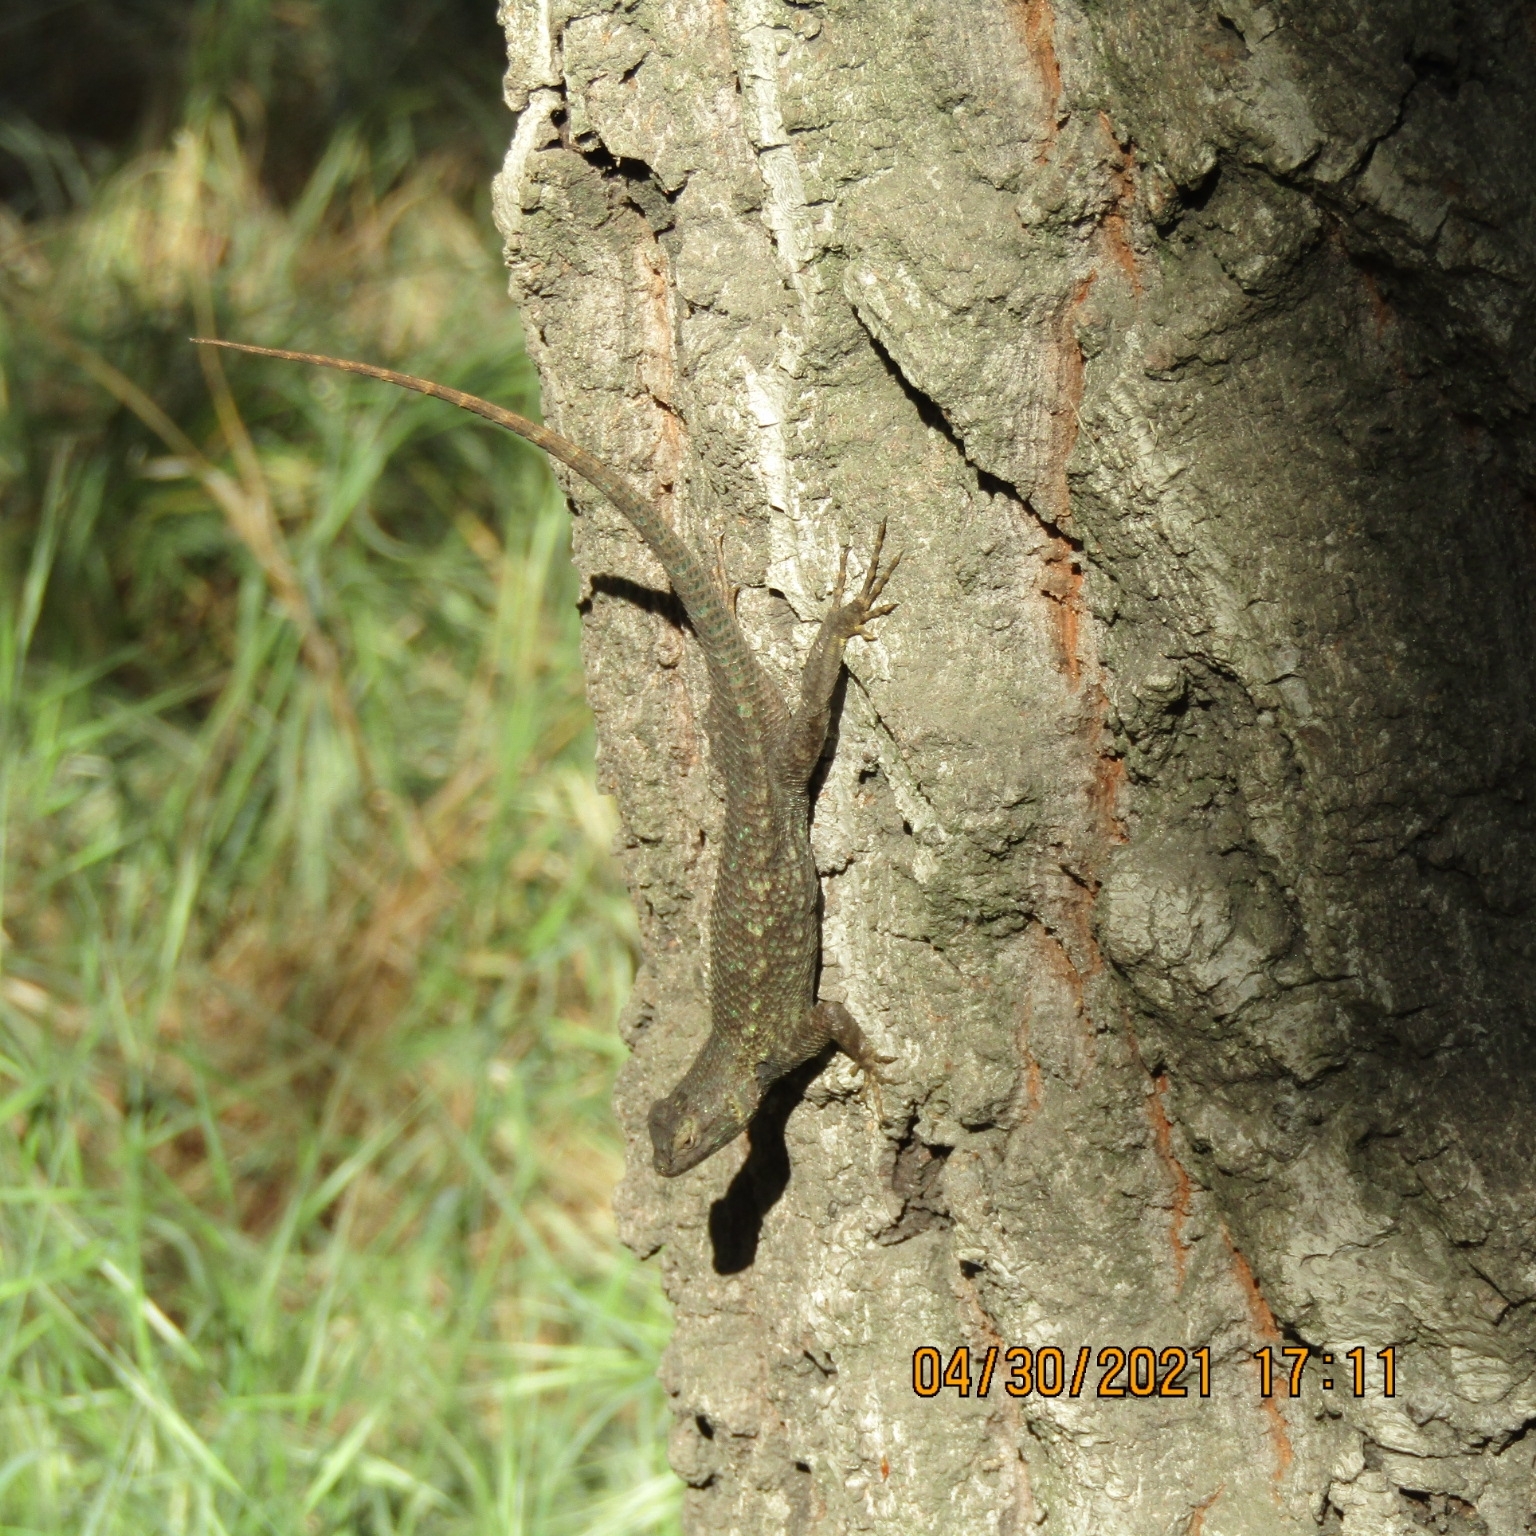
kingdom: Animalia
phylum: Chordata
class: Squamata
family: Phrynosomatidae
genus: Sceloporus
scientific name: Sceloporus occidentalis
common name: Western fence lizard
